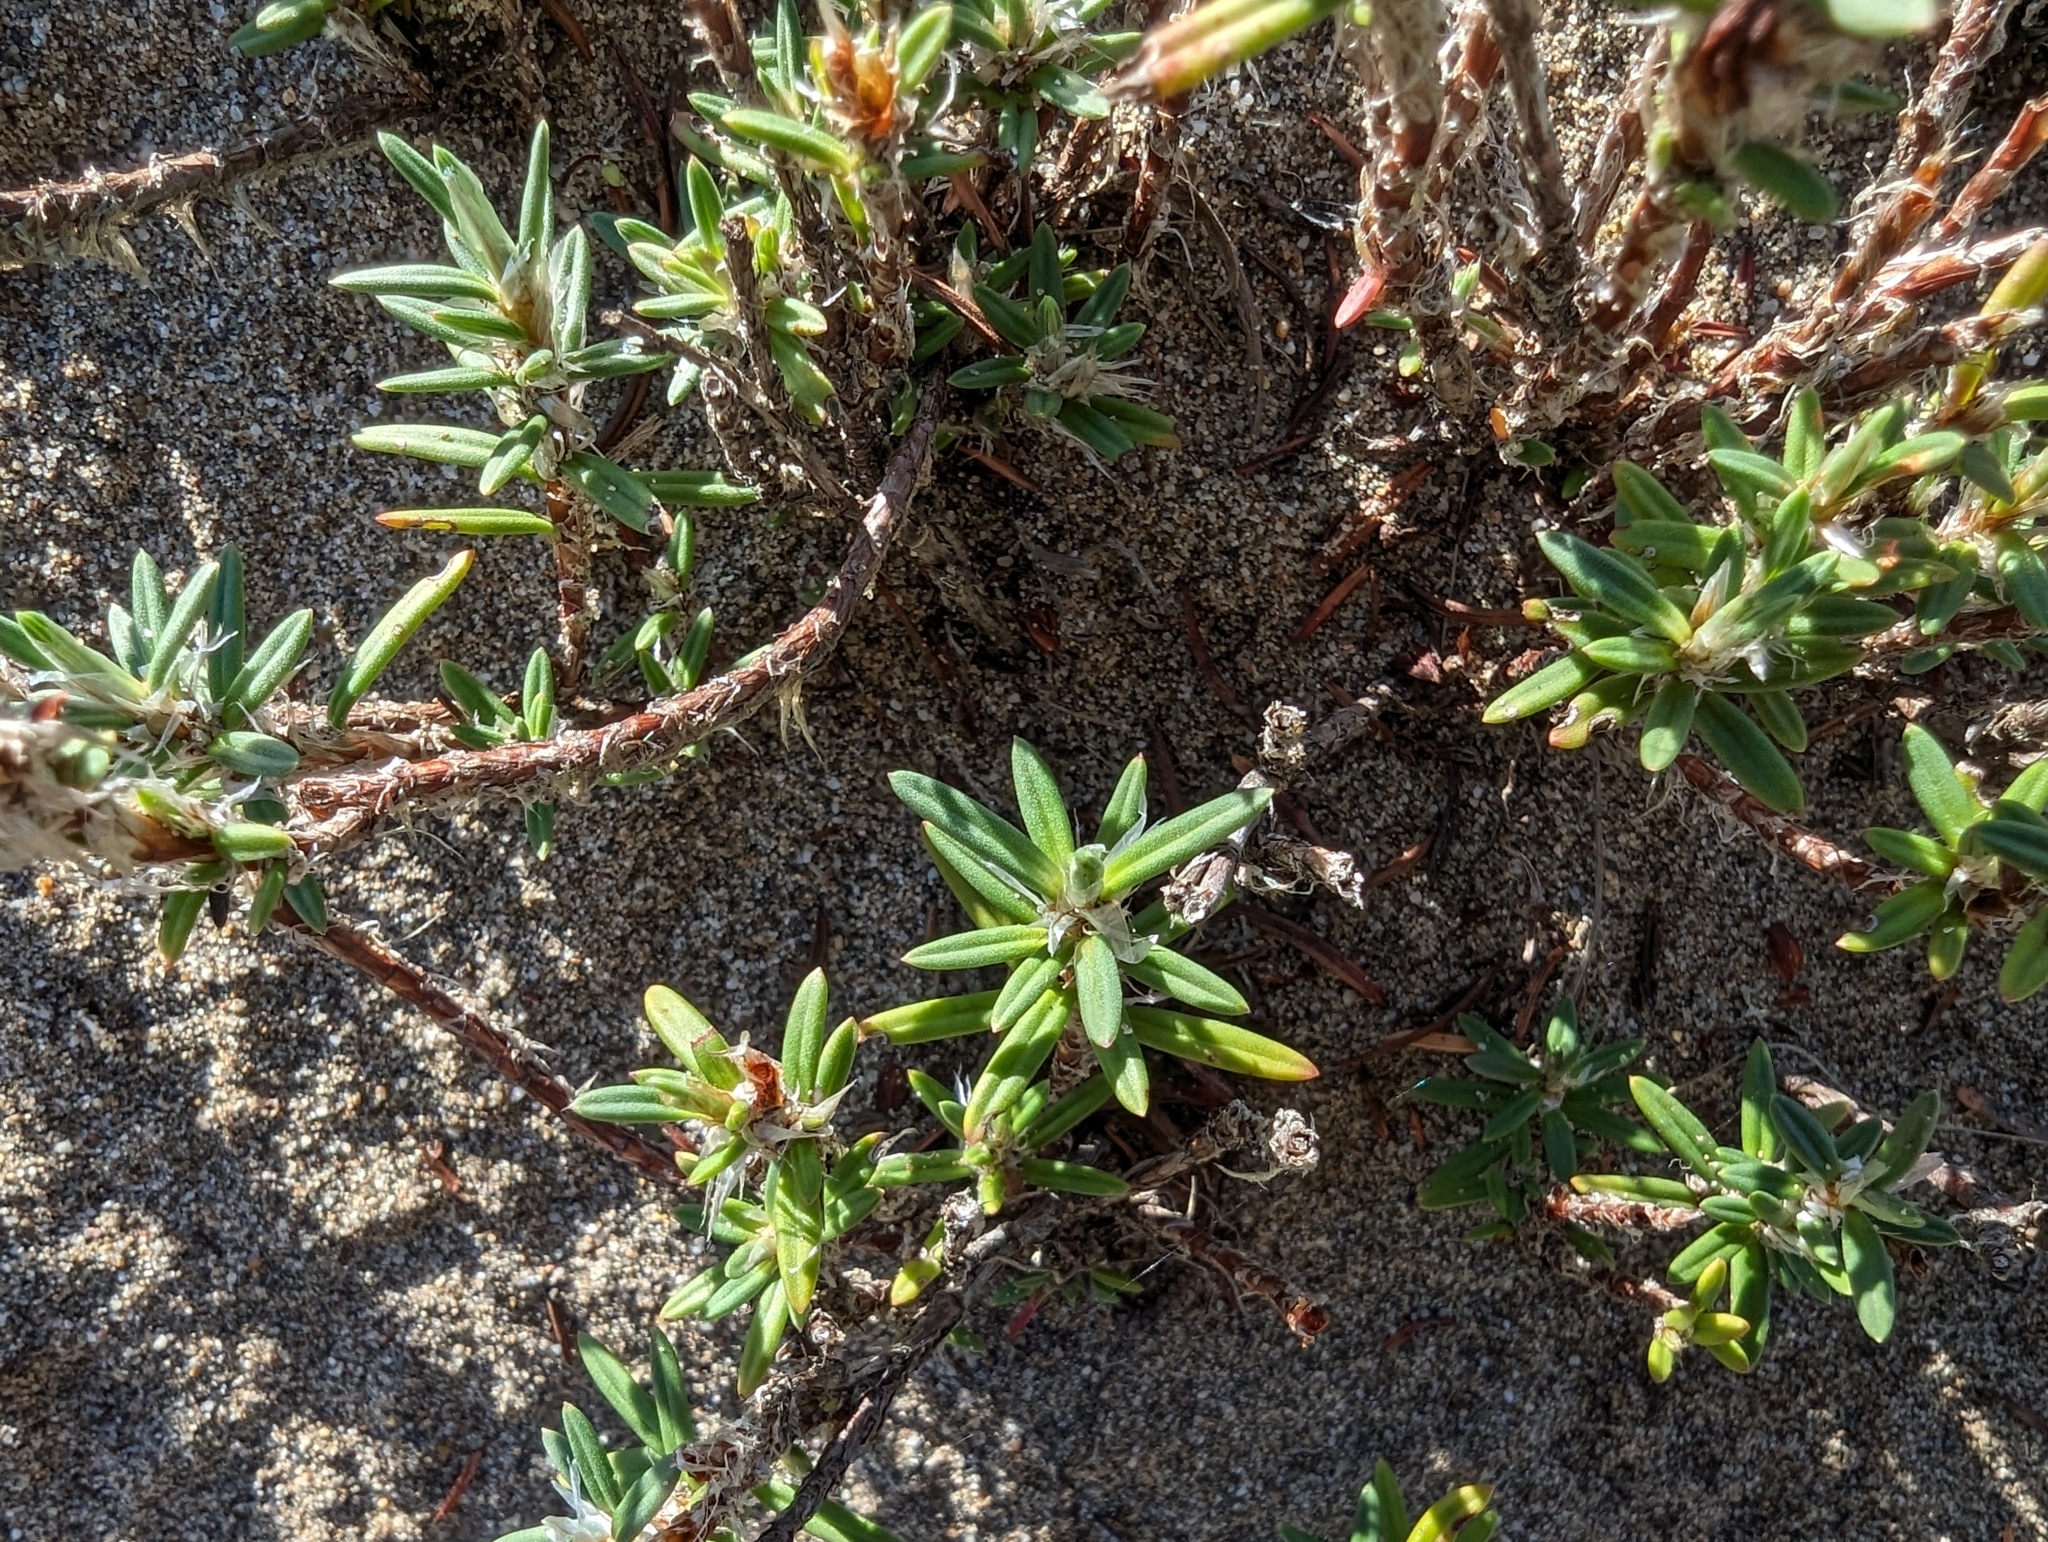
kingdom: Plantae
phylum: Tracheophyta
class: Magnoliopsida
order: Caryophyllales
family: Polygonaceae
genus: Polygonum
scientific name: Polygonum paronychia
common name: Dune knotweed
